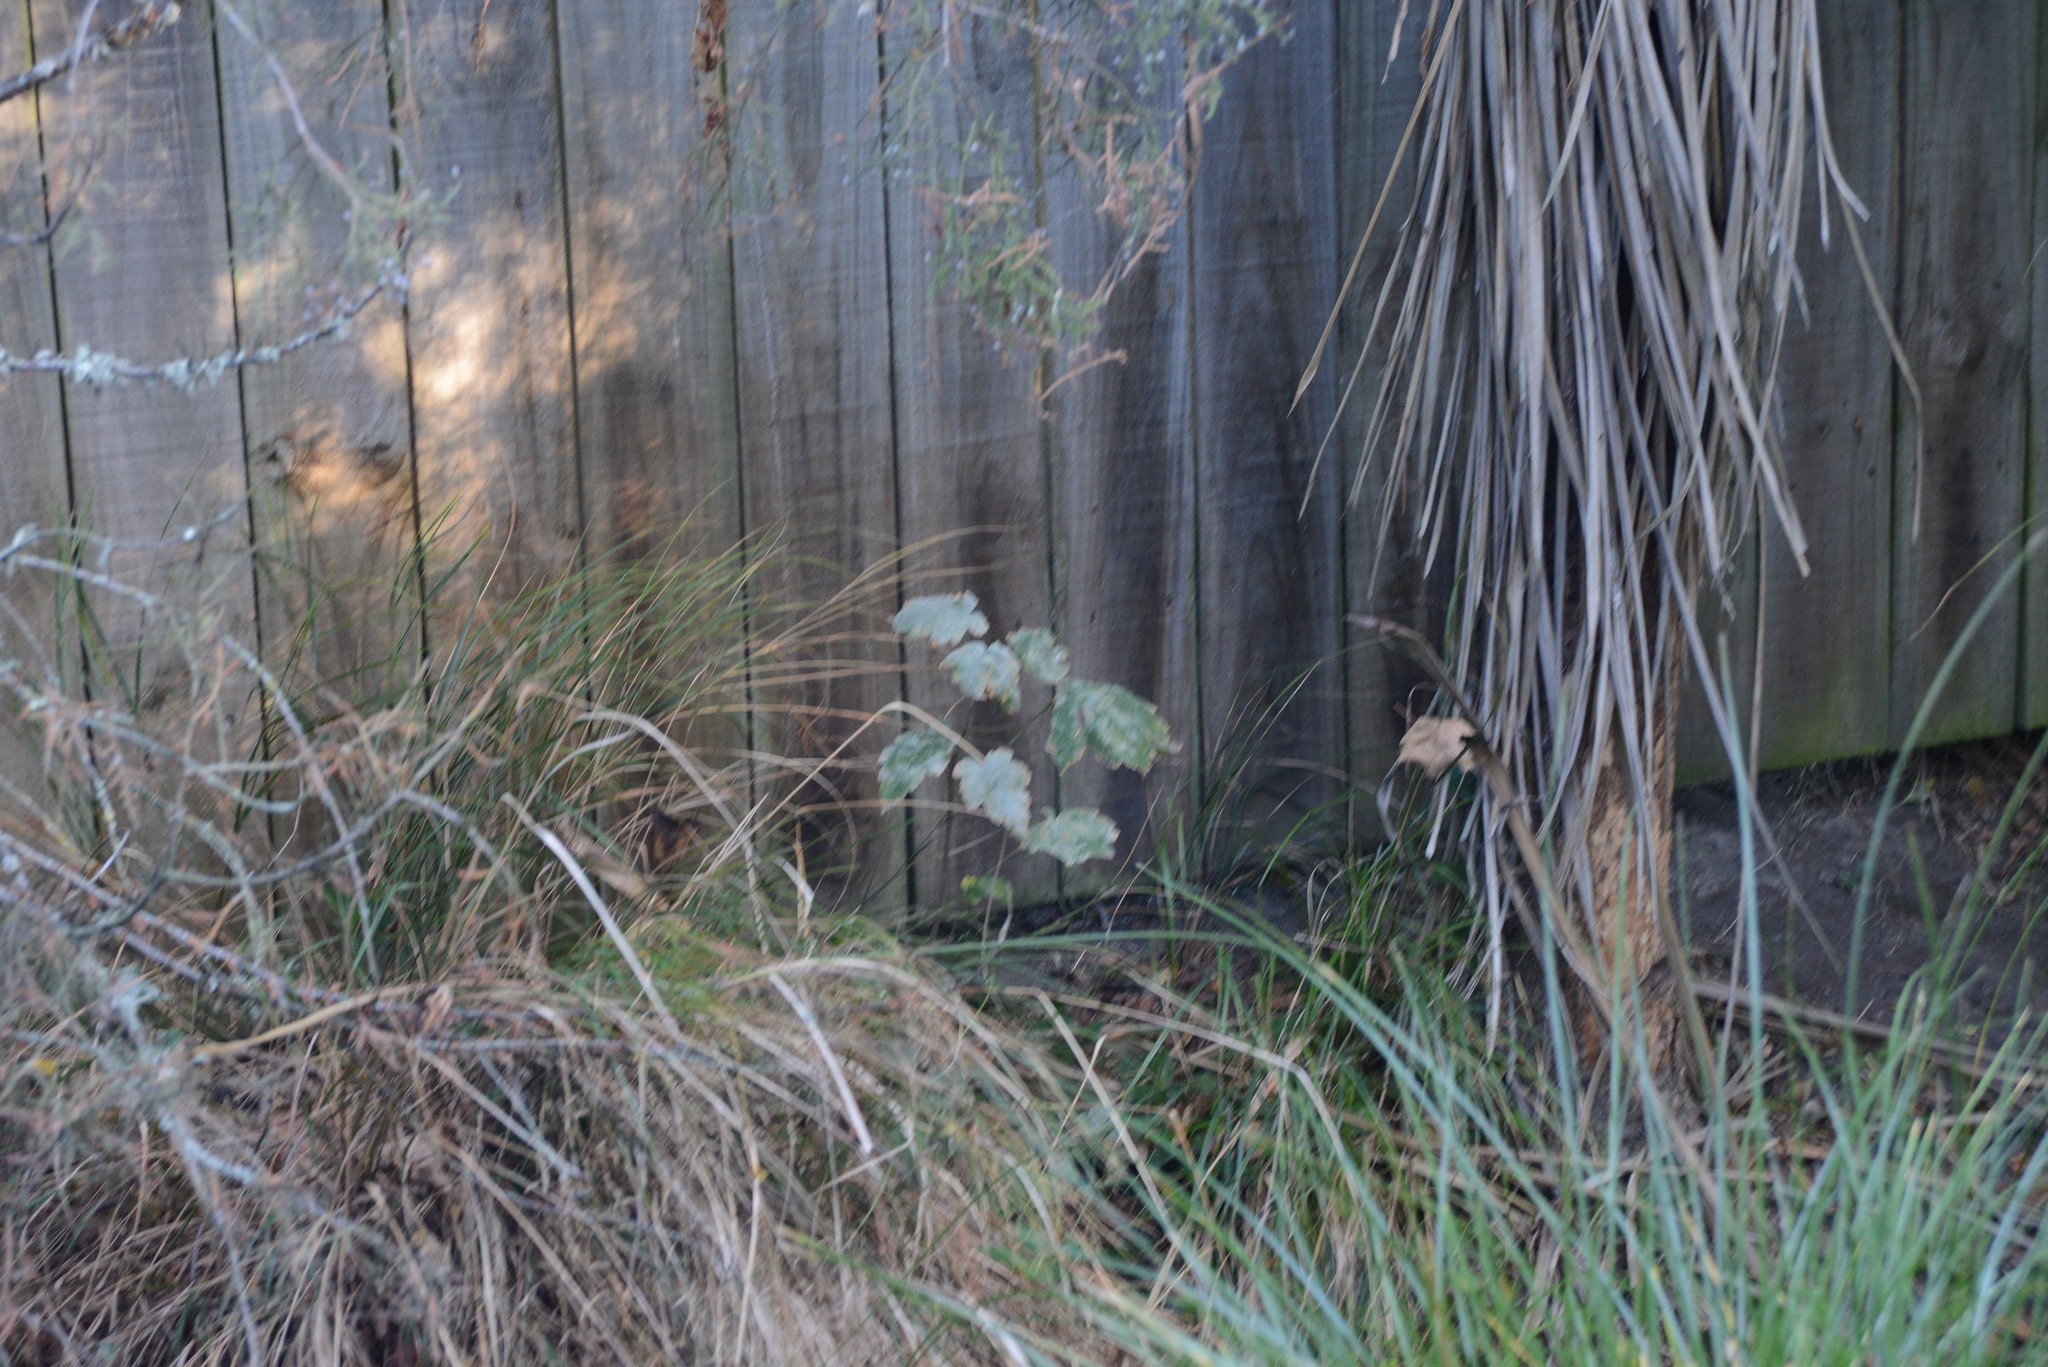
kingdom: Fungi
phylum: Ascomycota
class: Leotiomycetes
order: Helotiales
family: Erysiphaceae
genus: Sawadaea
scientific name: Sawadaea bicornis
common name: Maple mildew
